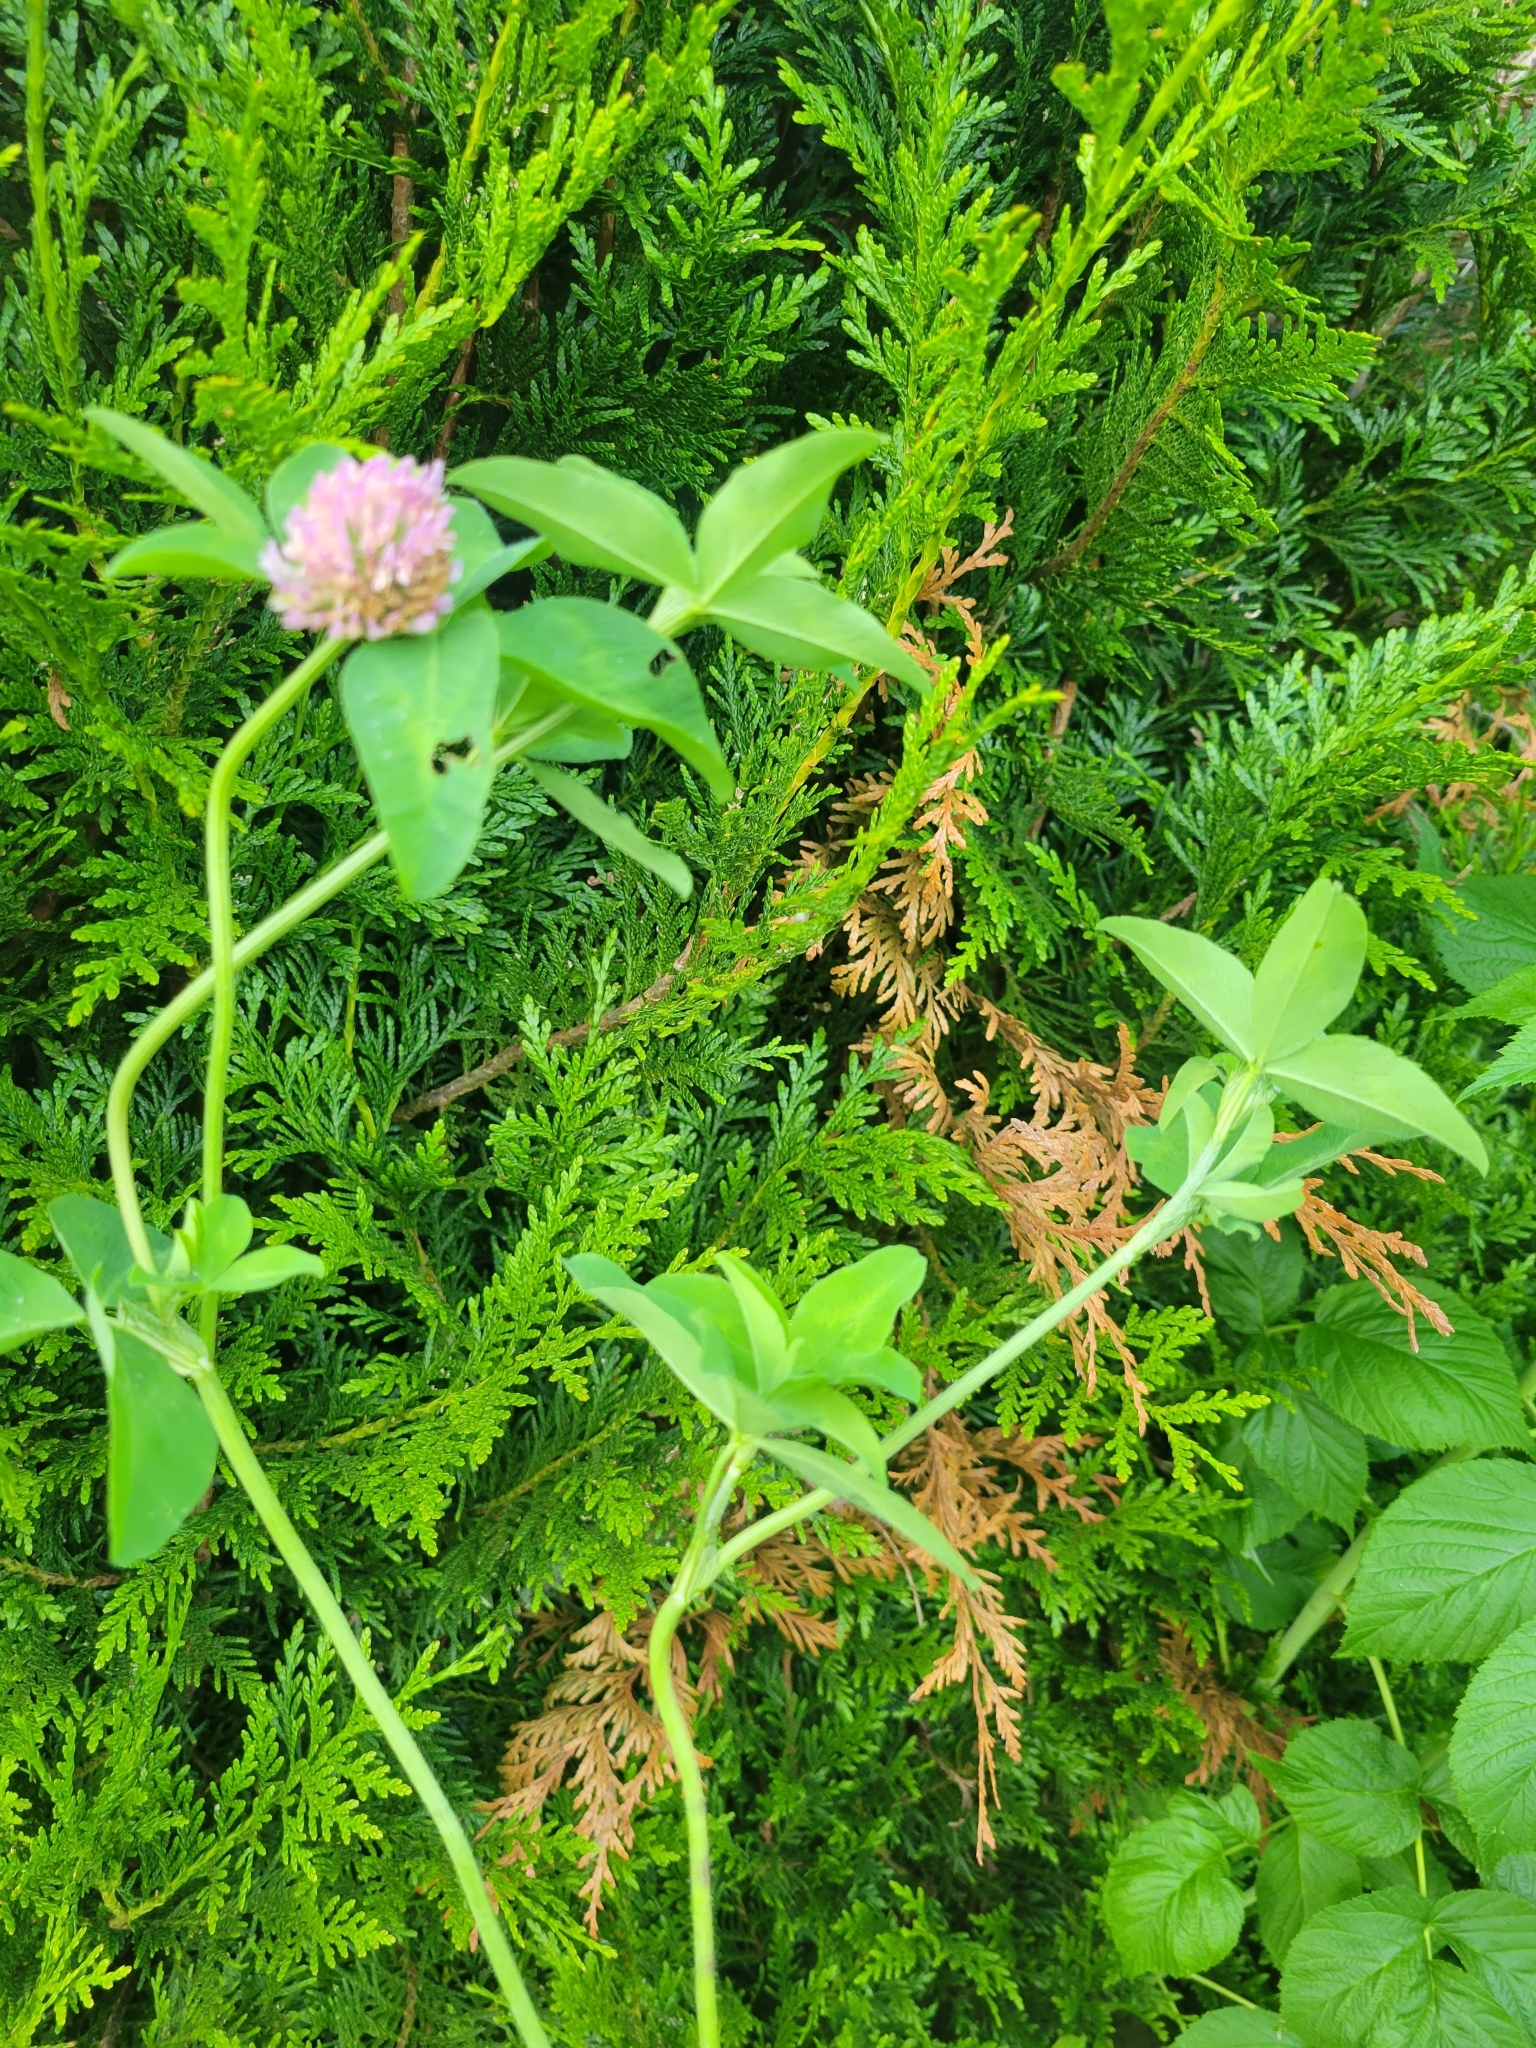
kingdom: Plantae
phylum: Tracheophyta
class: Magnoliopsida
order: Fabales
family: Fabaceae
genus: Trifolium
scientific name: Trifolium pratense
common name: Red clover
